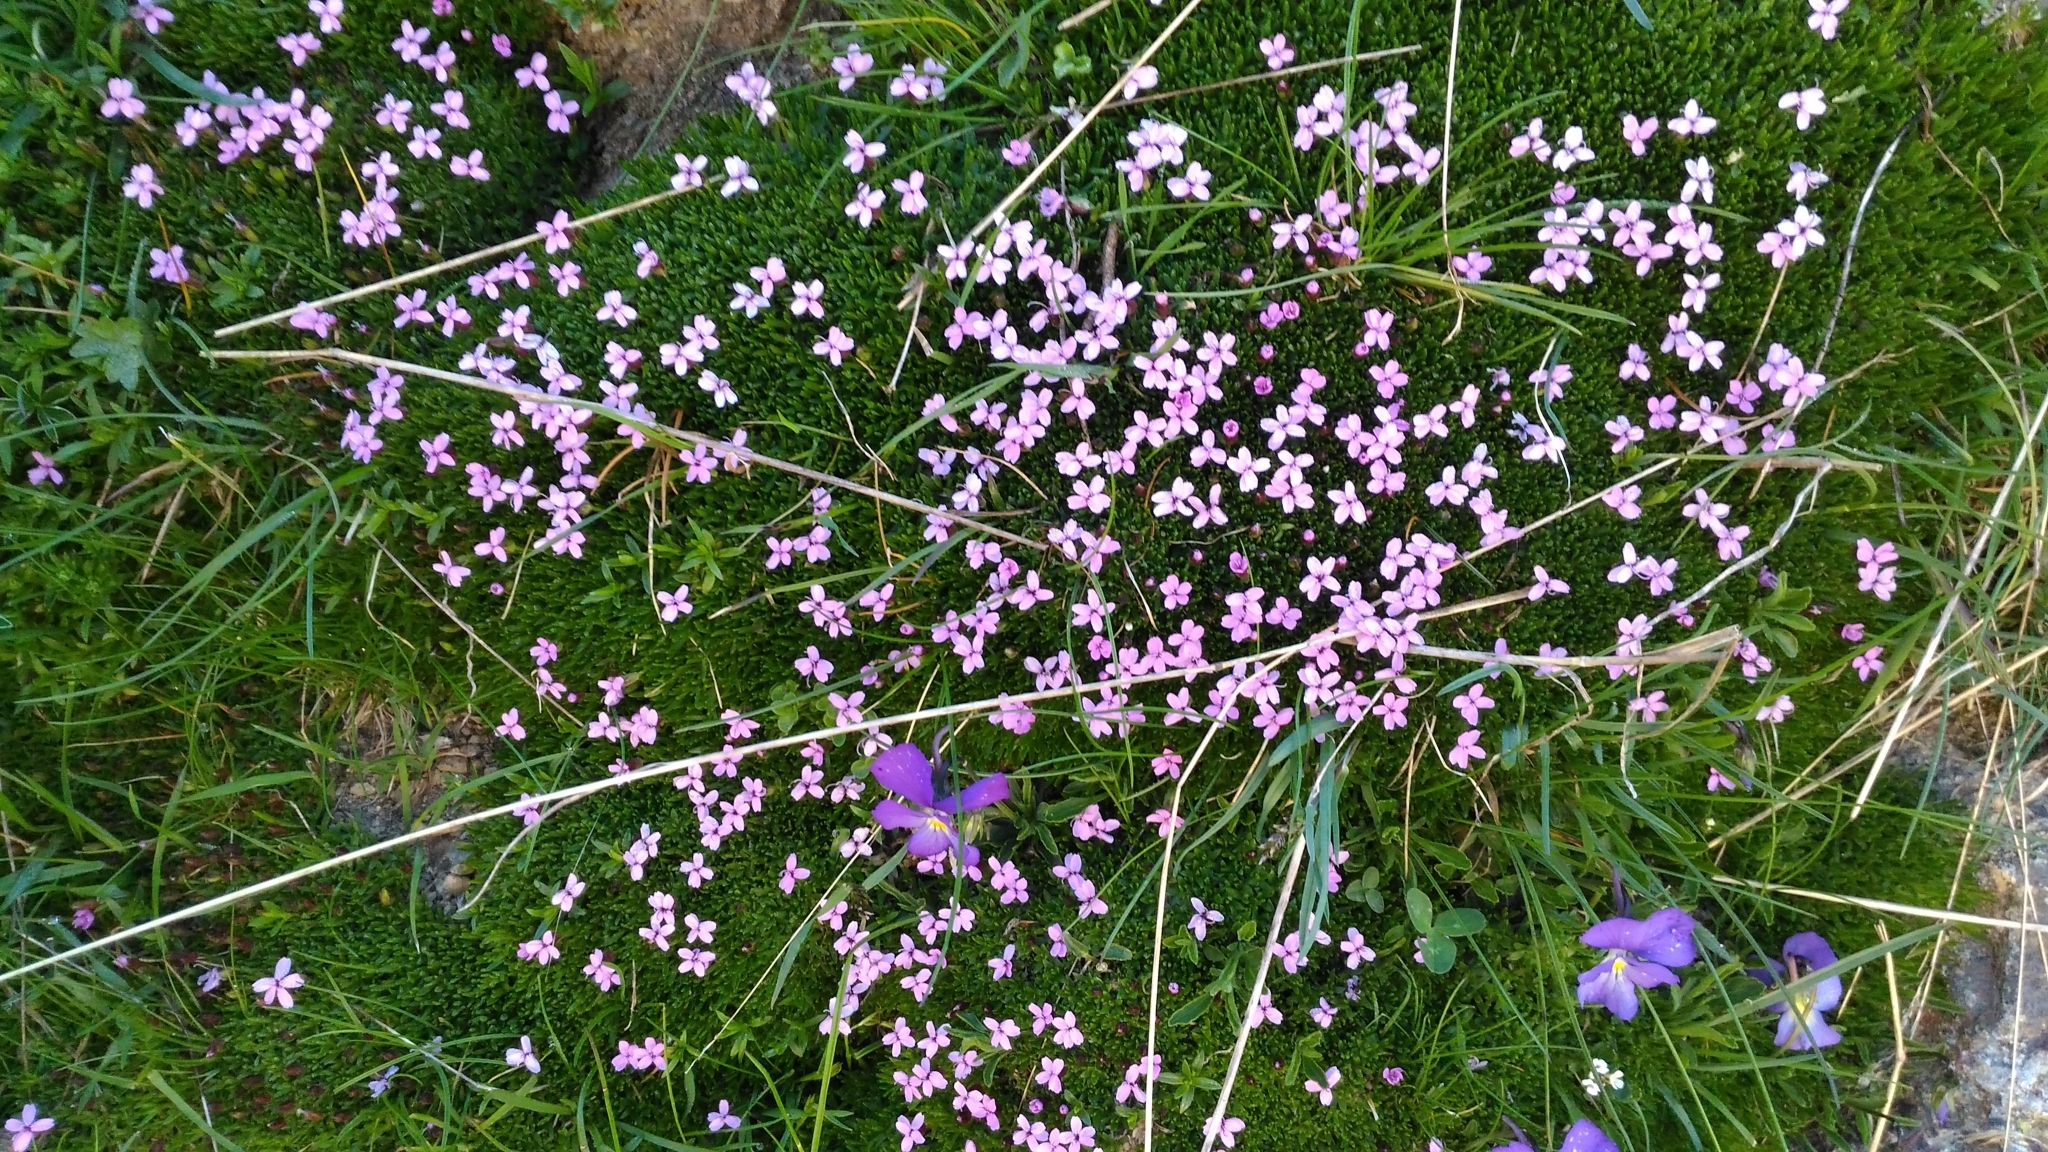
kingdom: Plantae
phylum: Tracheophyta
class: Magnoliopsida
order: Caryophyllales
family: Caryophyllaceae
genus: Silene
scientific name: Silene acaulis
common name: Moss campion
